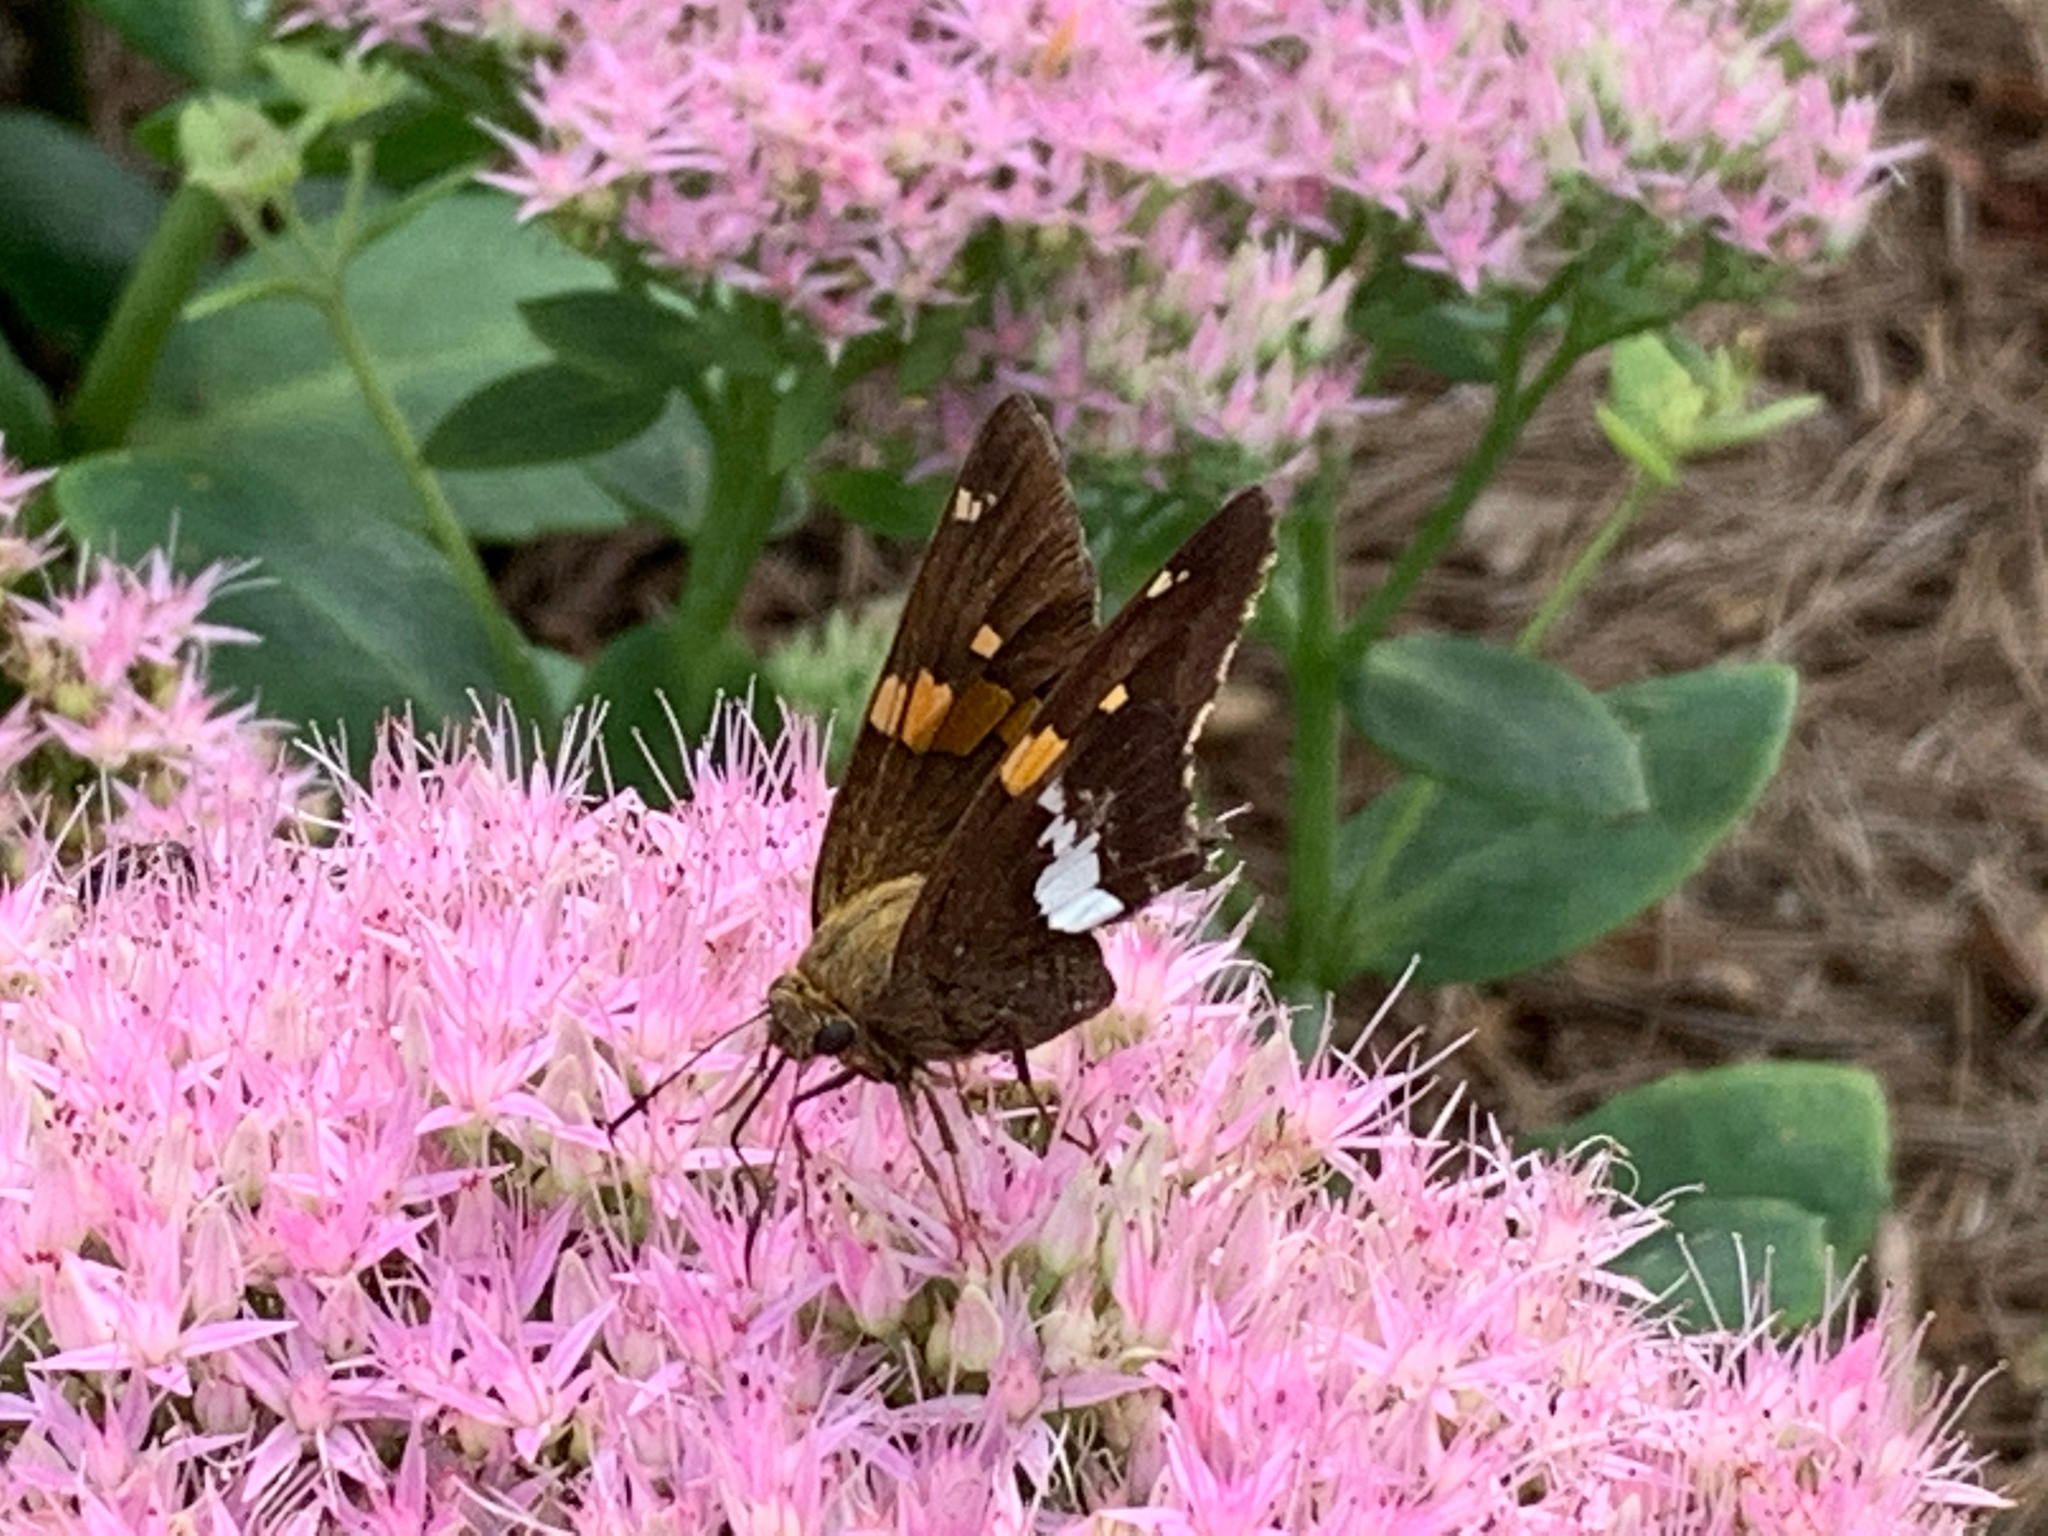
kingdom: Animalia
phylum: Arthropoda
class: Insecta
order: Lepidoptera
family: Hesperiidae
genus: Epargyreus
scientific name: Epargyreus clarus
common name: Silver-spotted skipper
